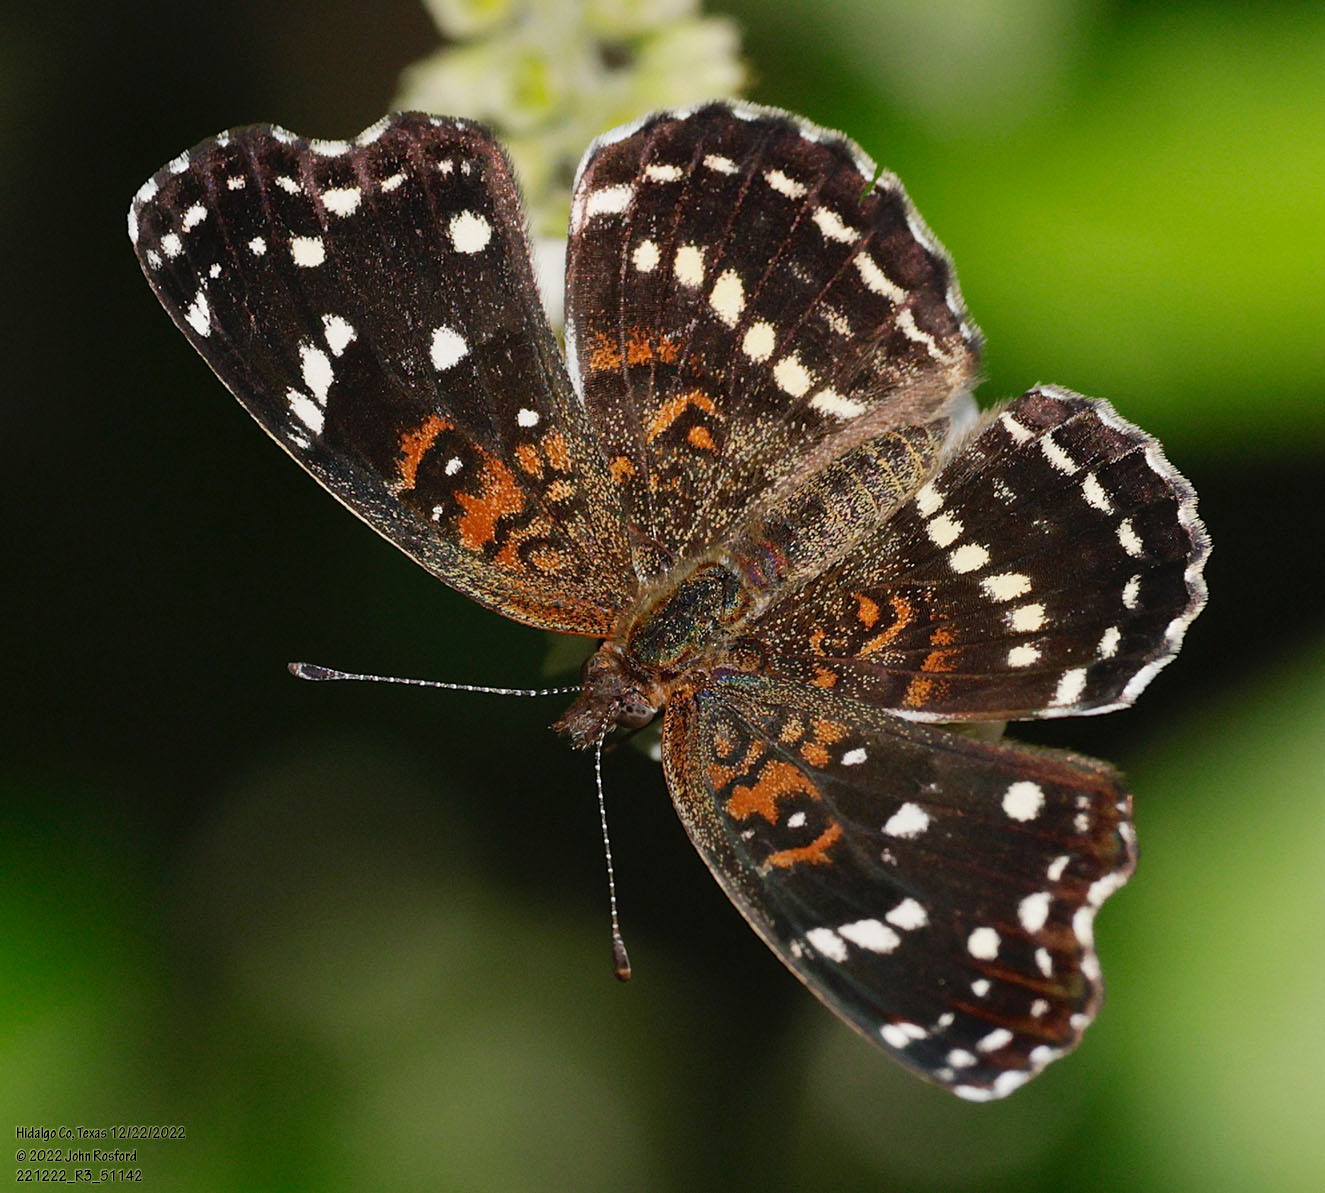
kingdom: Animalia
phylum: Arthropoda
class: Insecta
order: Lepidoptera
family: Nymphalidae
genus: Anthanassa
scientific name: Anthanassa texana
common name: Texan crescent
